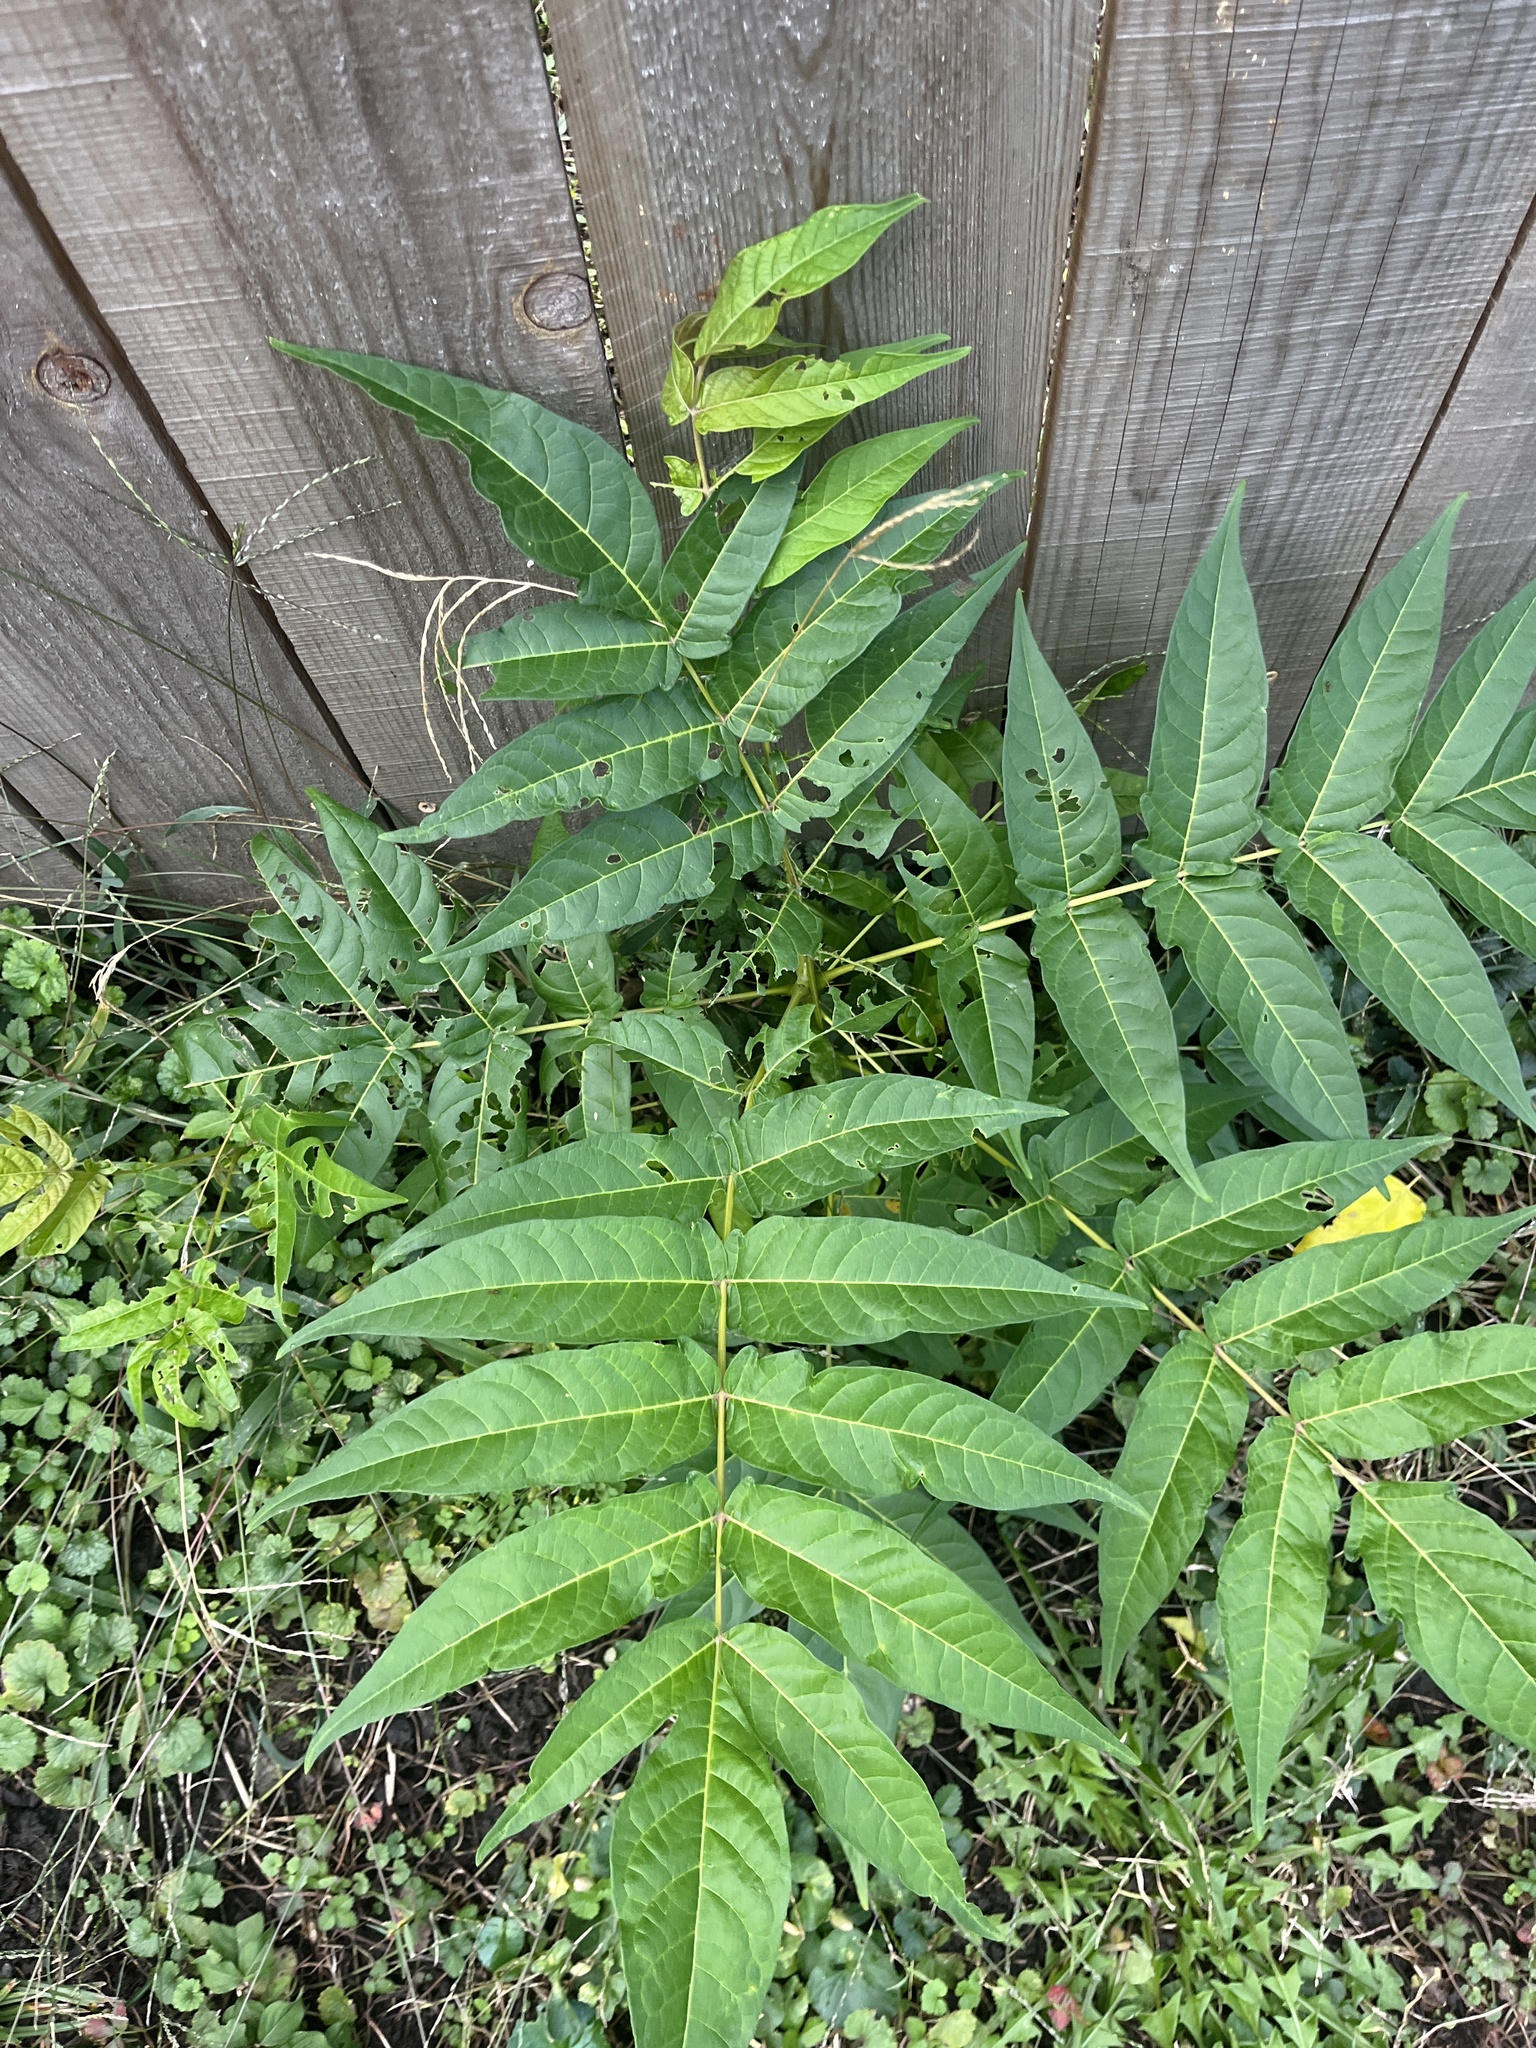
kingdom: Plantae
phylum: Tracheophyta
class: Magnoliopsida
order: Sapindales
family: Simaroubaceae
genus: Ailanthus
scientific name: Ailanthus altissima
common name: Tree-of-heaven
